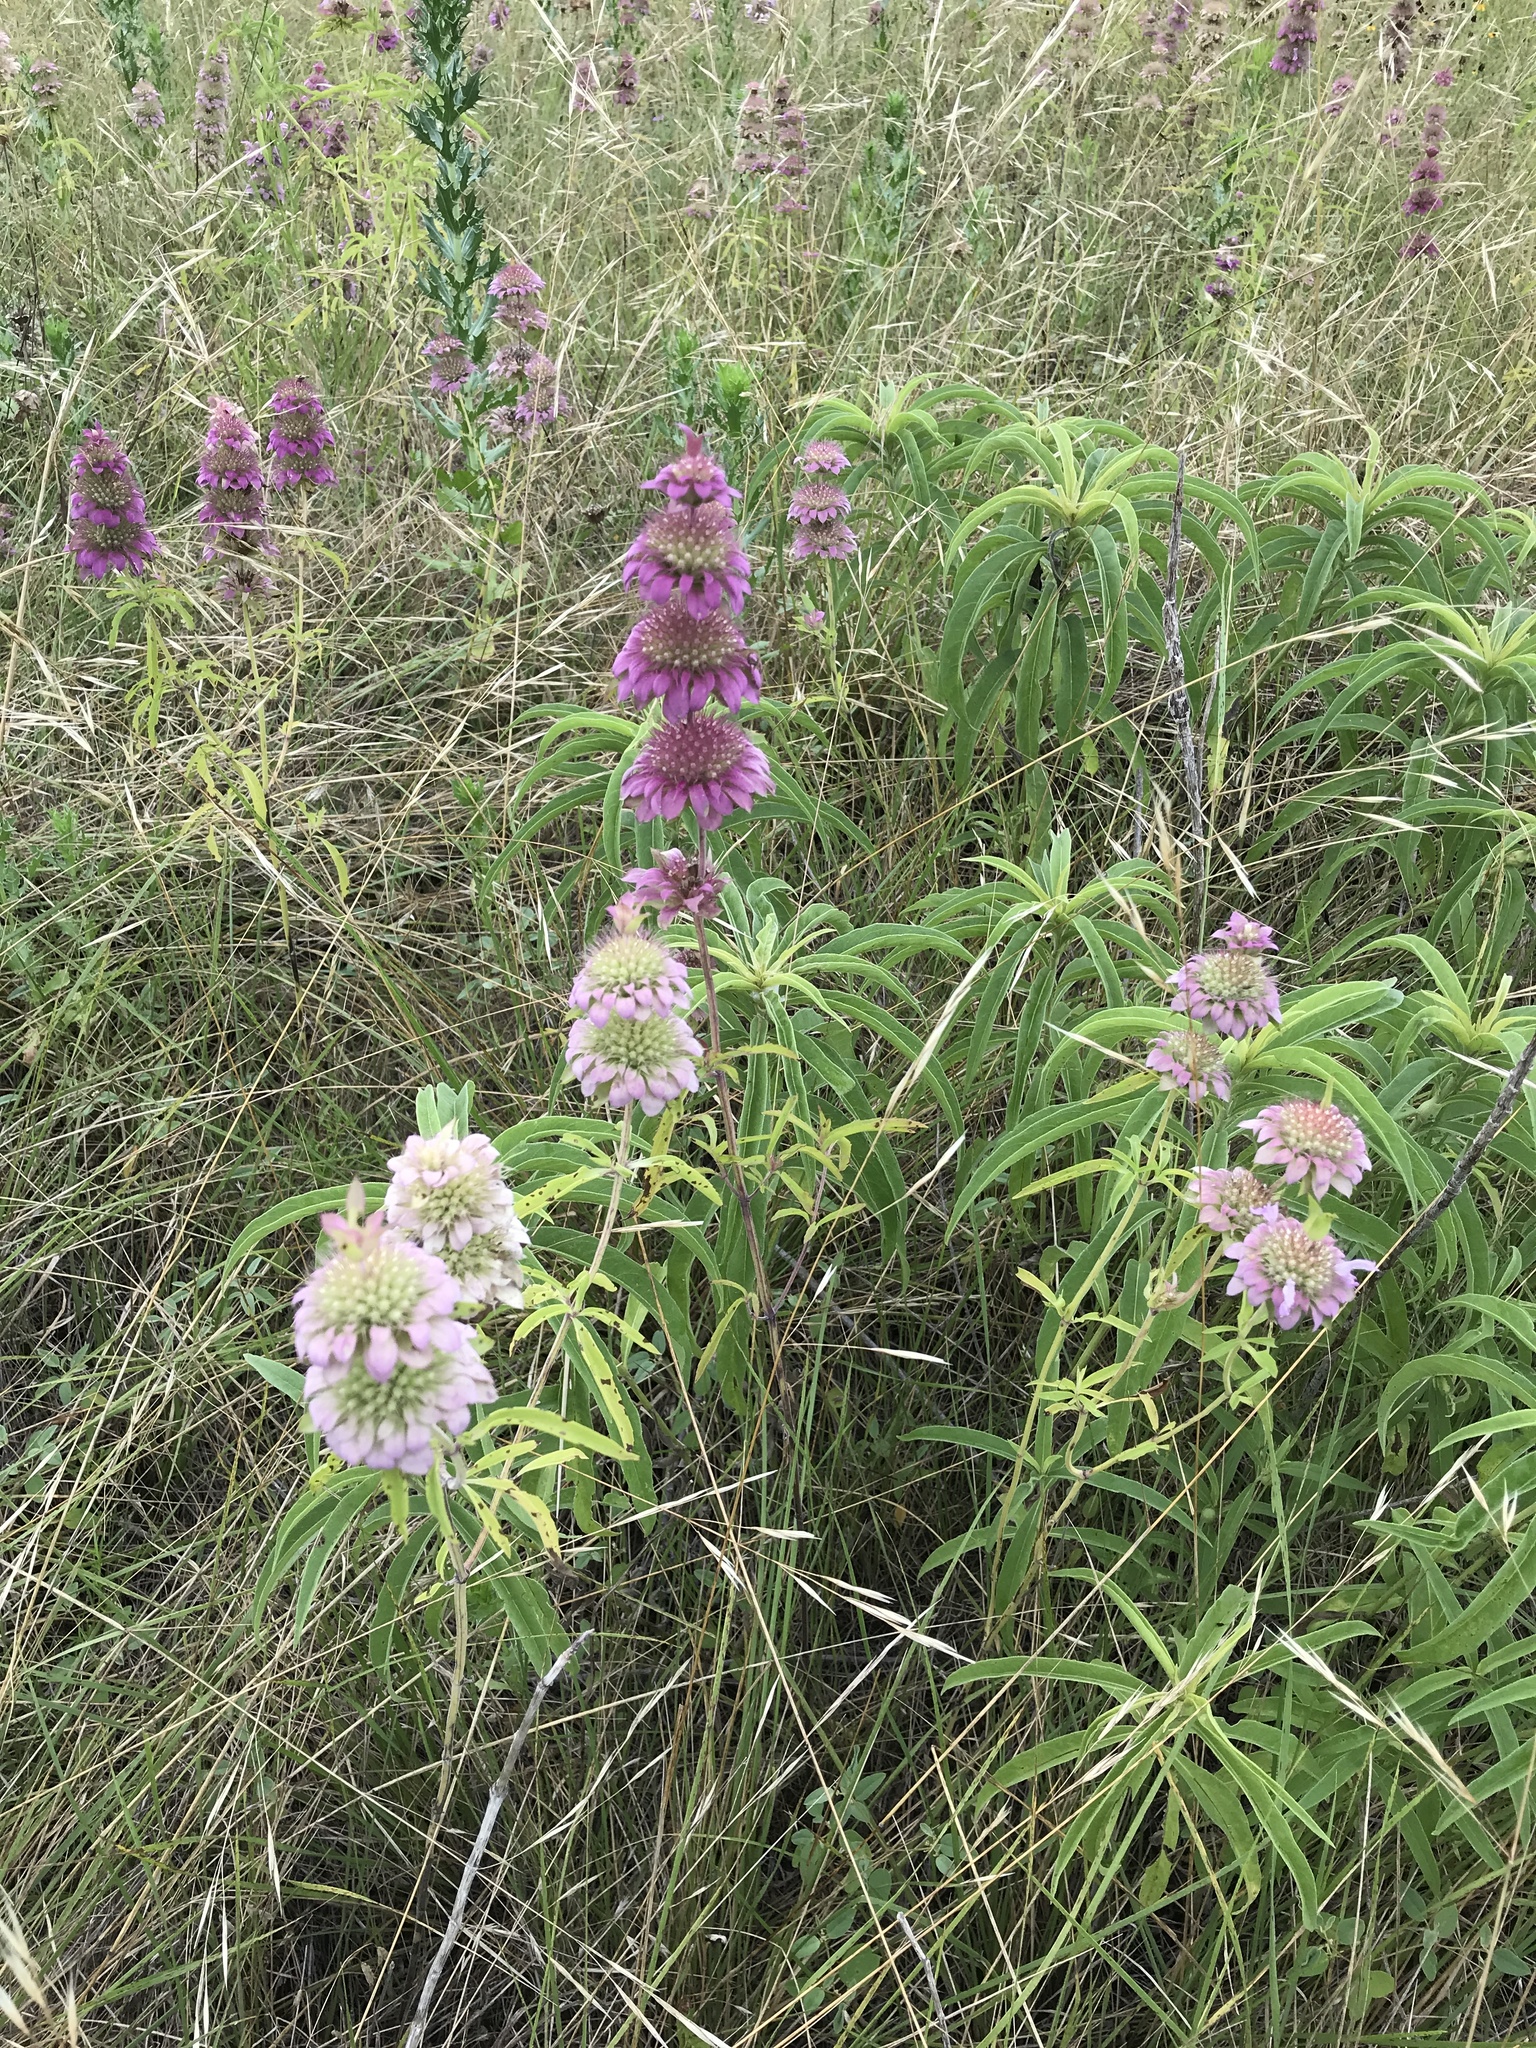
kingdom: Plantae
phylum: Tracheophyta
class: Magnoliopsida
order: Lamiales
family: Lamiaceae
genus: Monarda
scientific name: Monarda citriodora
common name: Lemon beebalm
